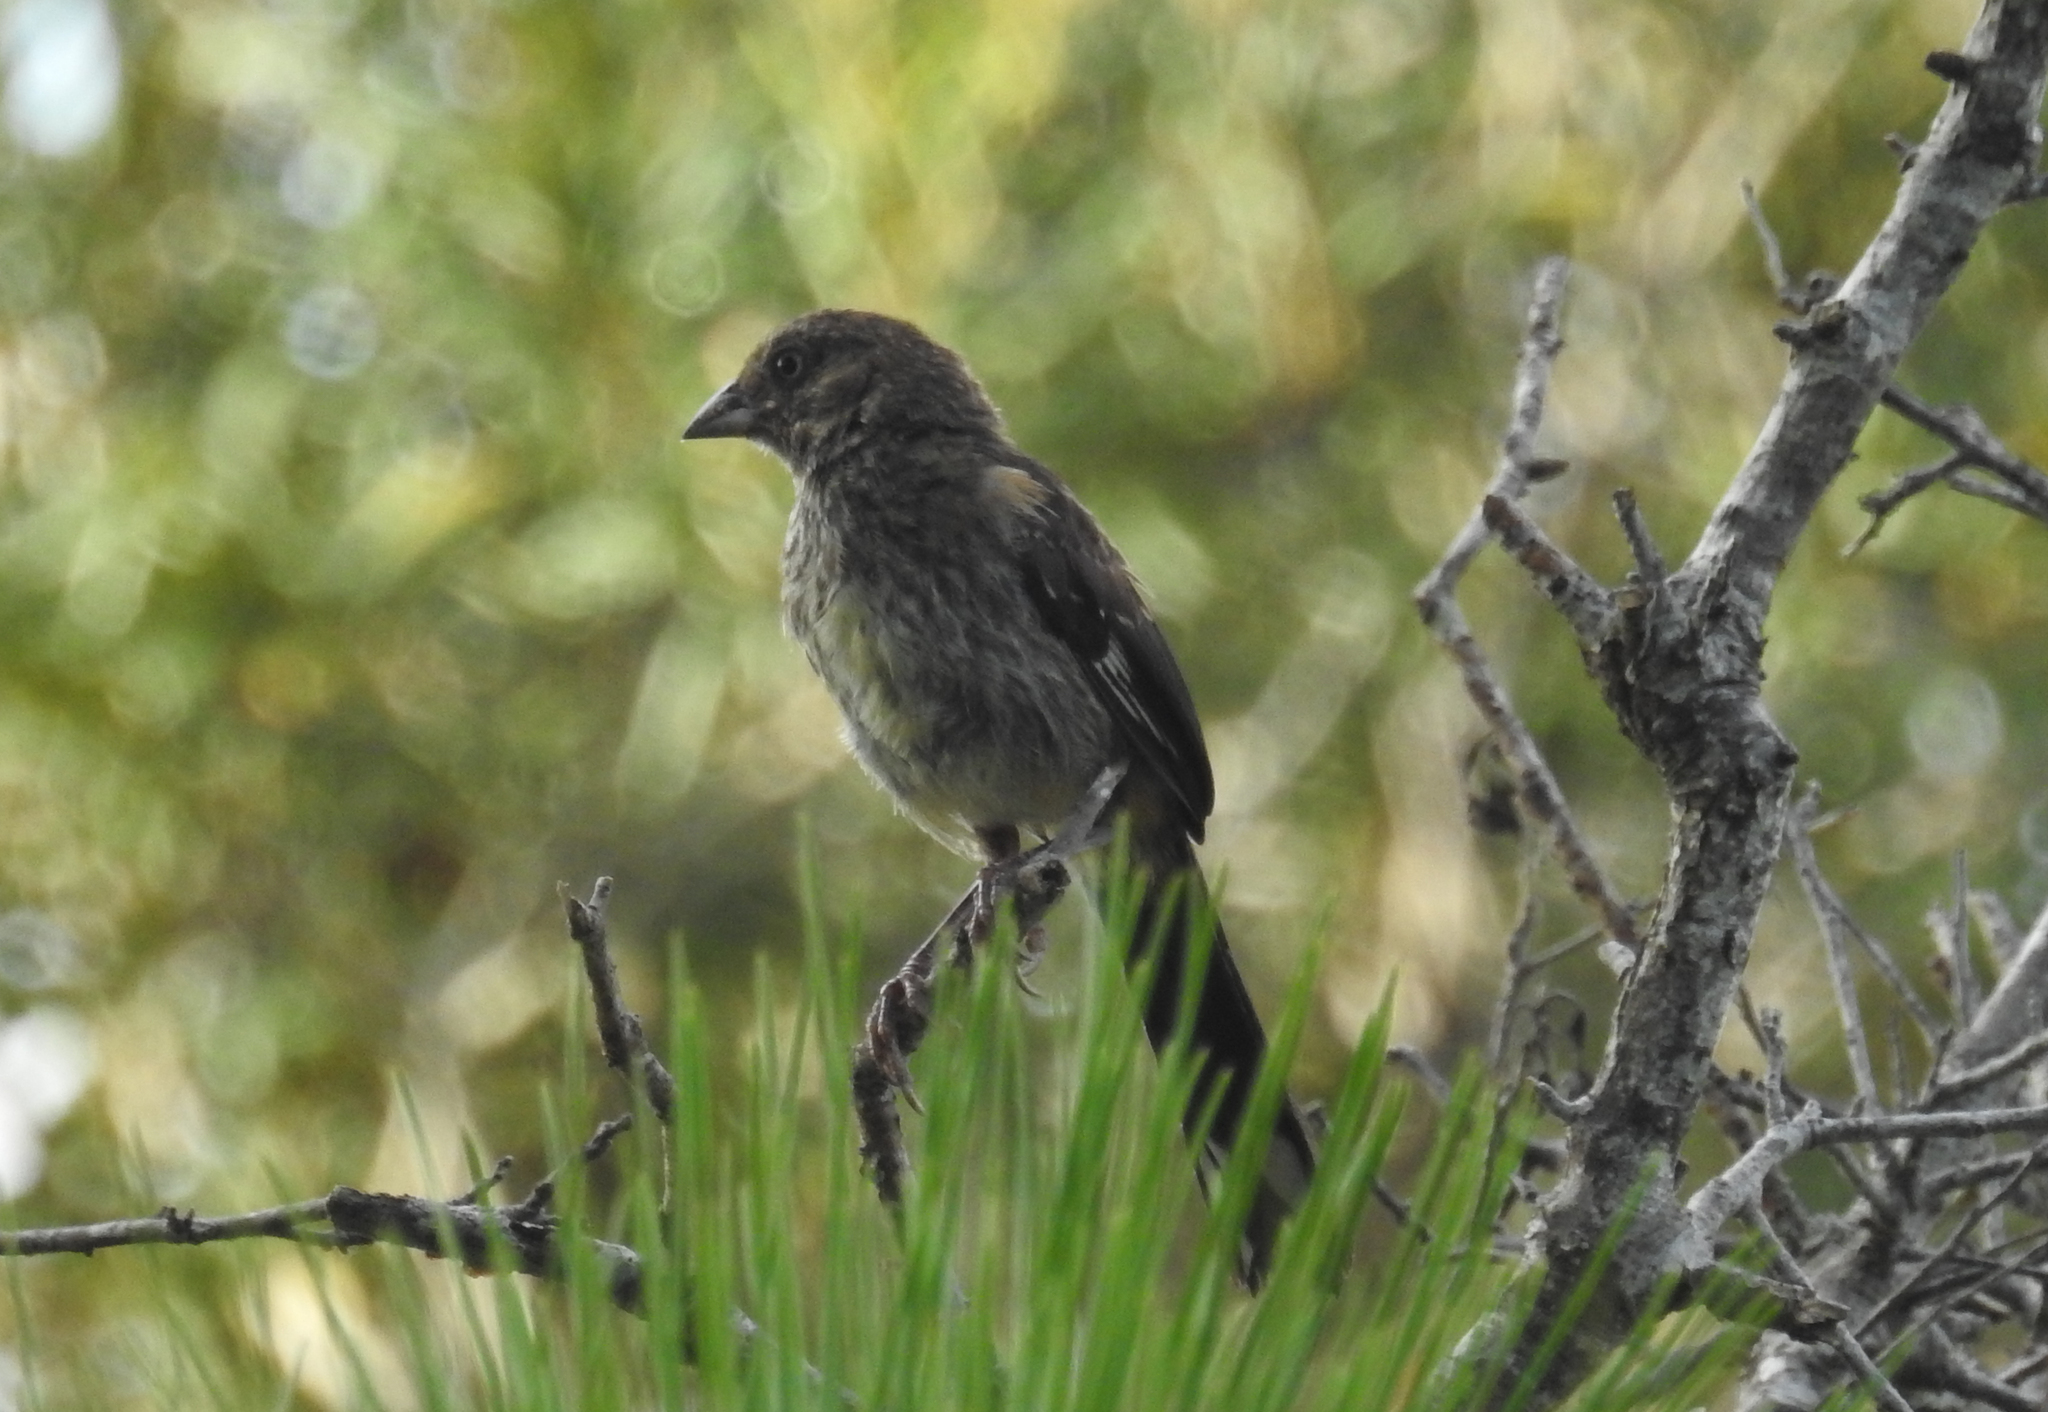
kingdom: Animalia
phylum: Chordata
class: Aves
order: Passeriformes
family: Passerellidae
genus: Pipilo
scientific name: Pipilo erythrophthalmus
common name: Eastern towhee
